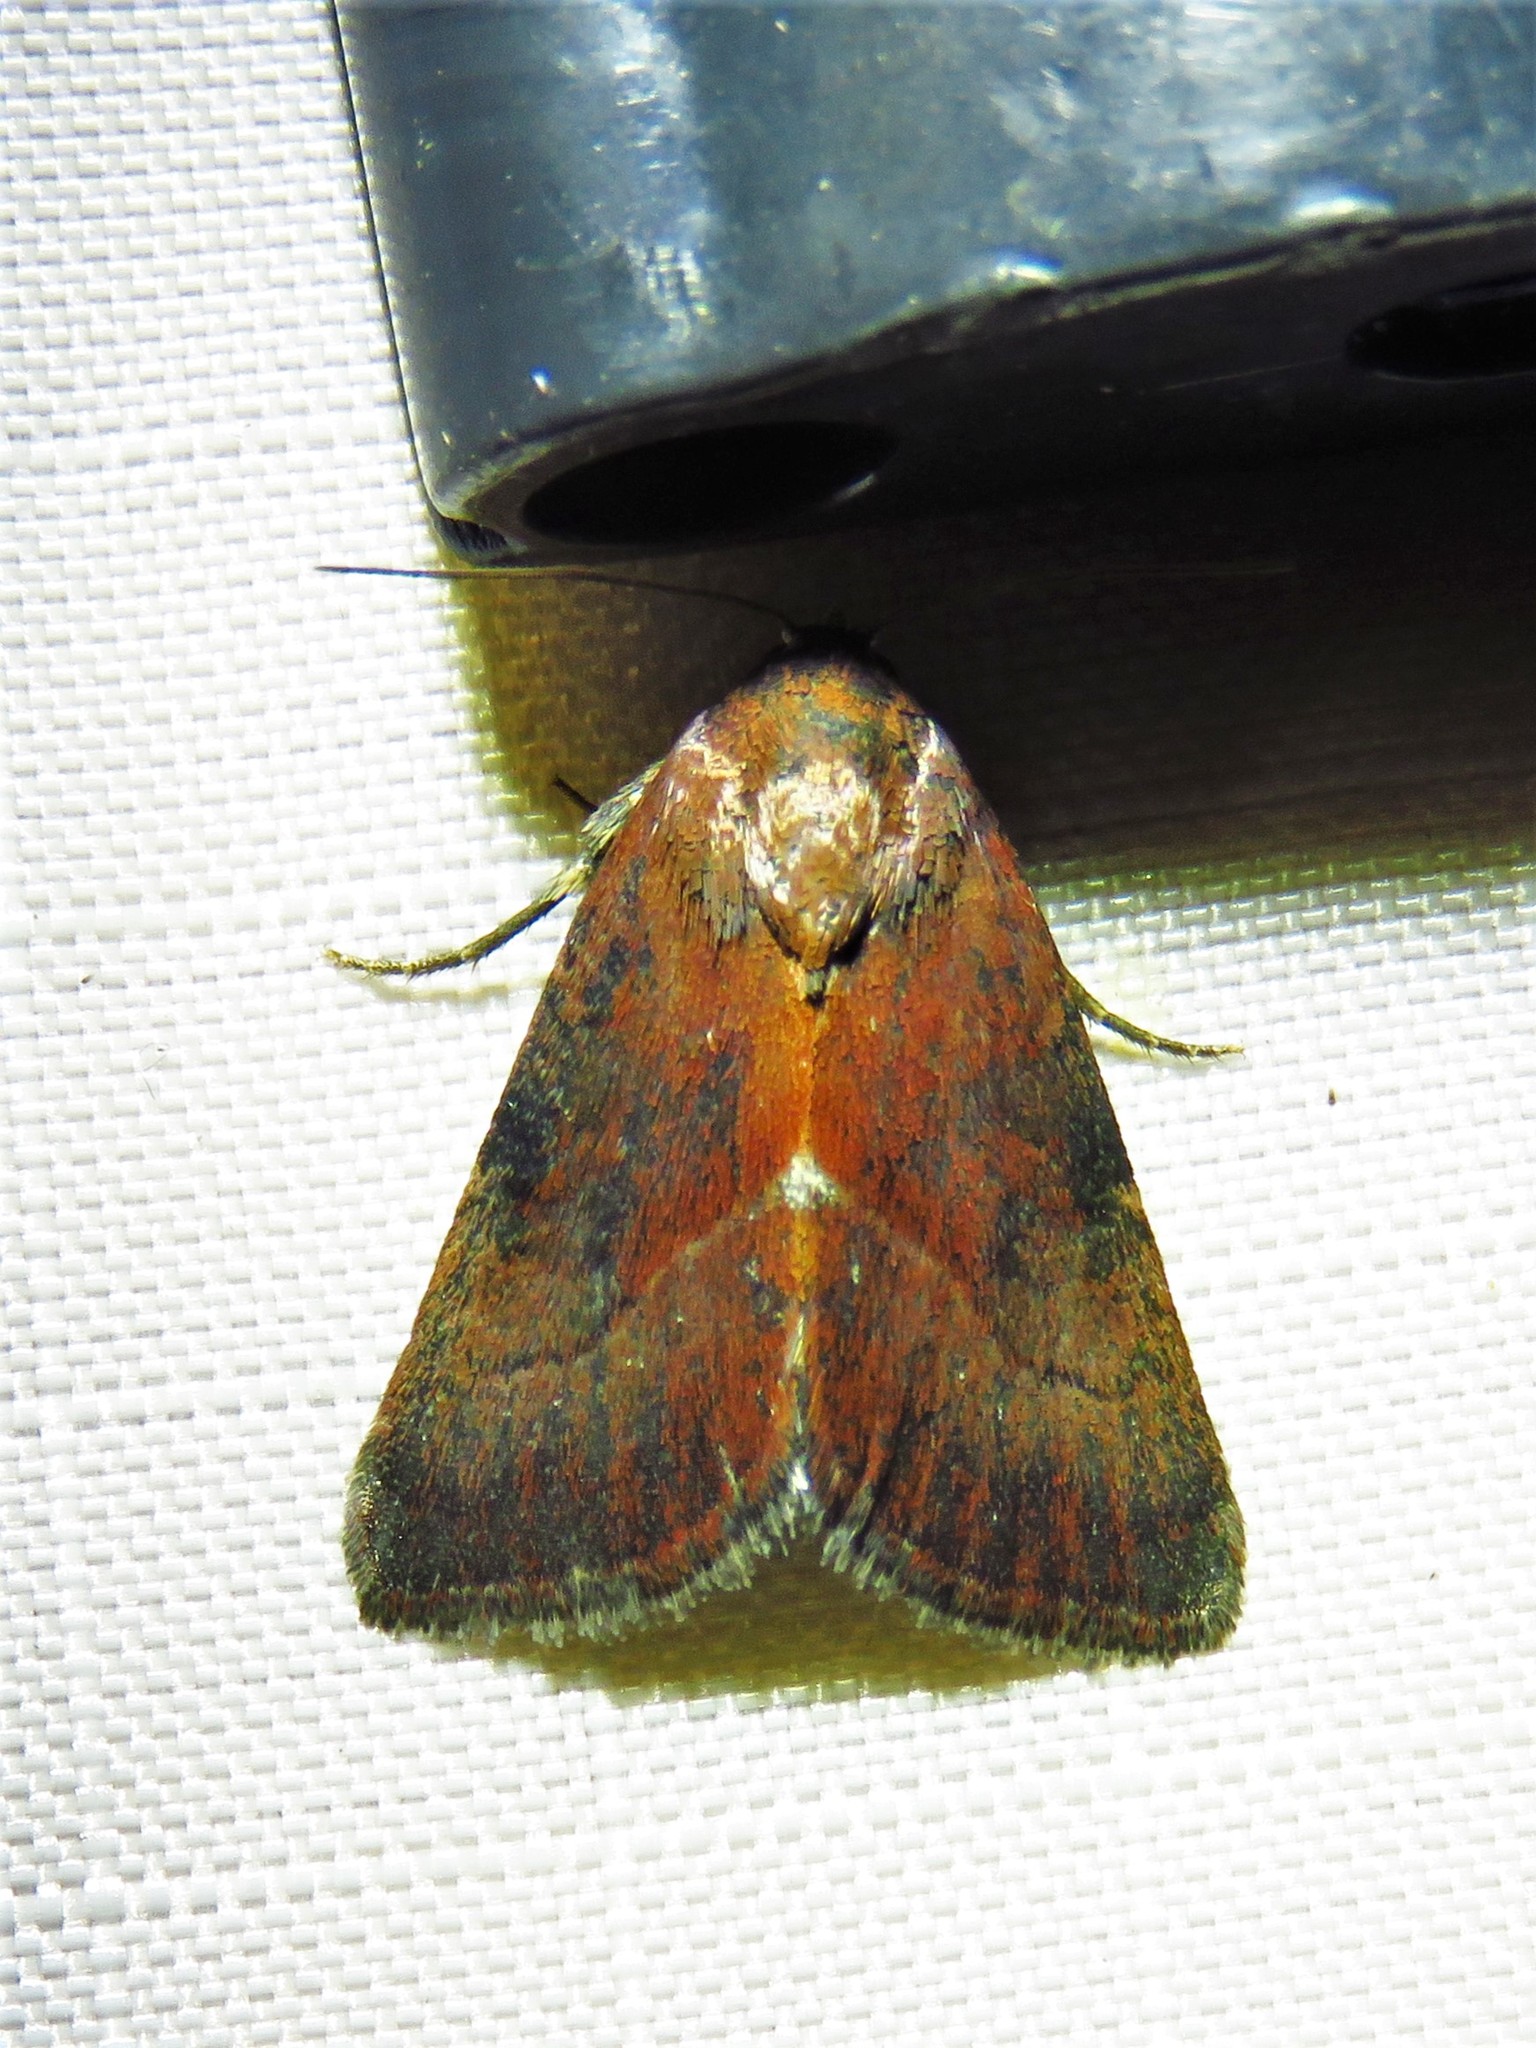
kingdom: Animalia
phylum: Arthropoda
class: Insecta
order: Lepidoptera
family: Noctuidae
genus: Galgula
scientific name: Galgula partita
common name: Wedgeling
